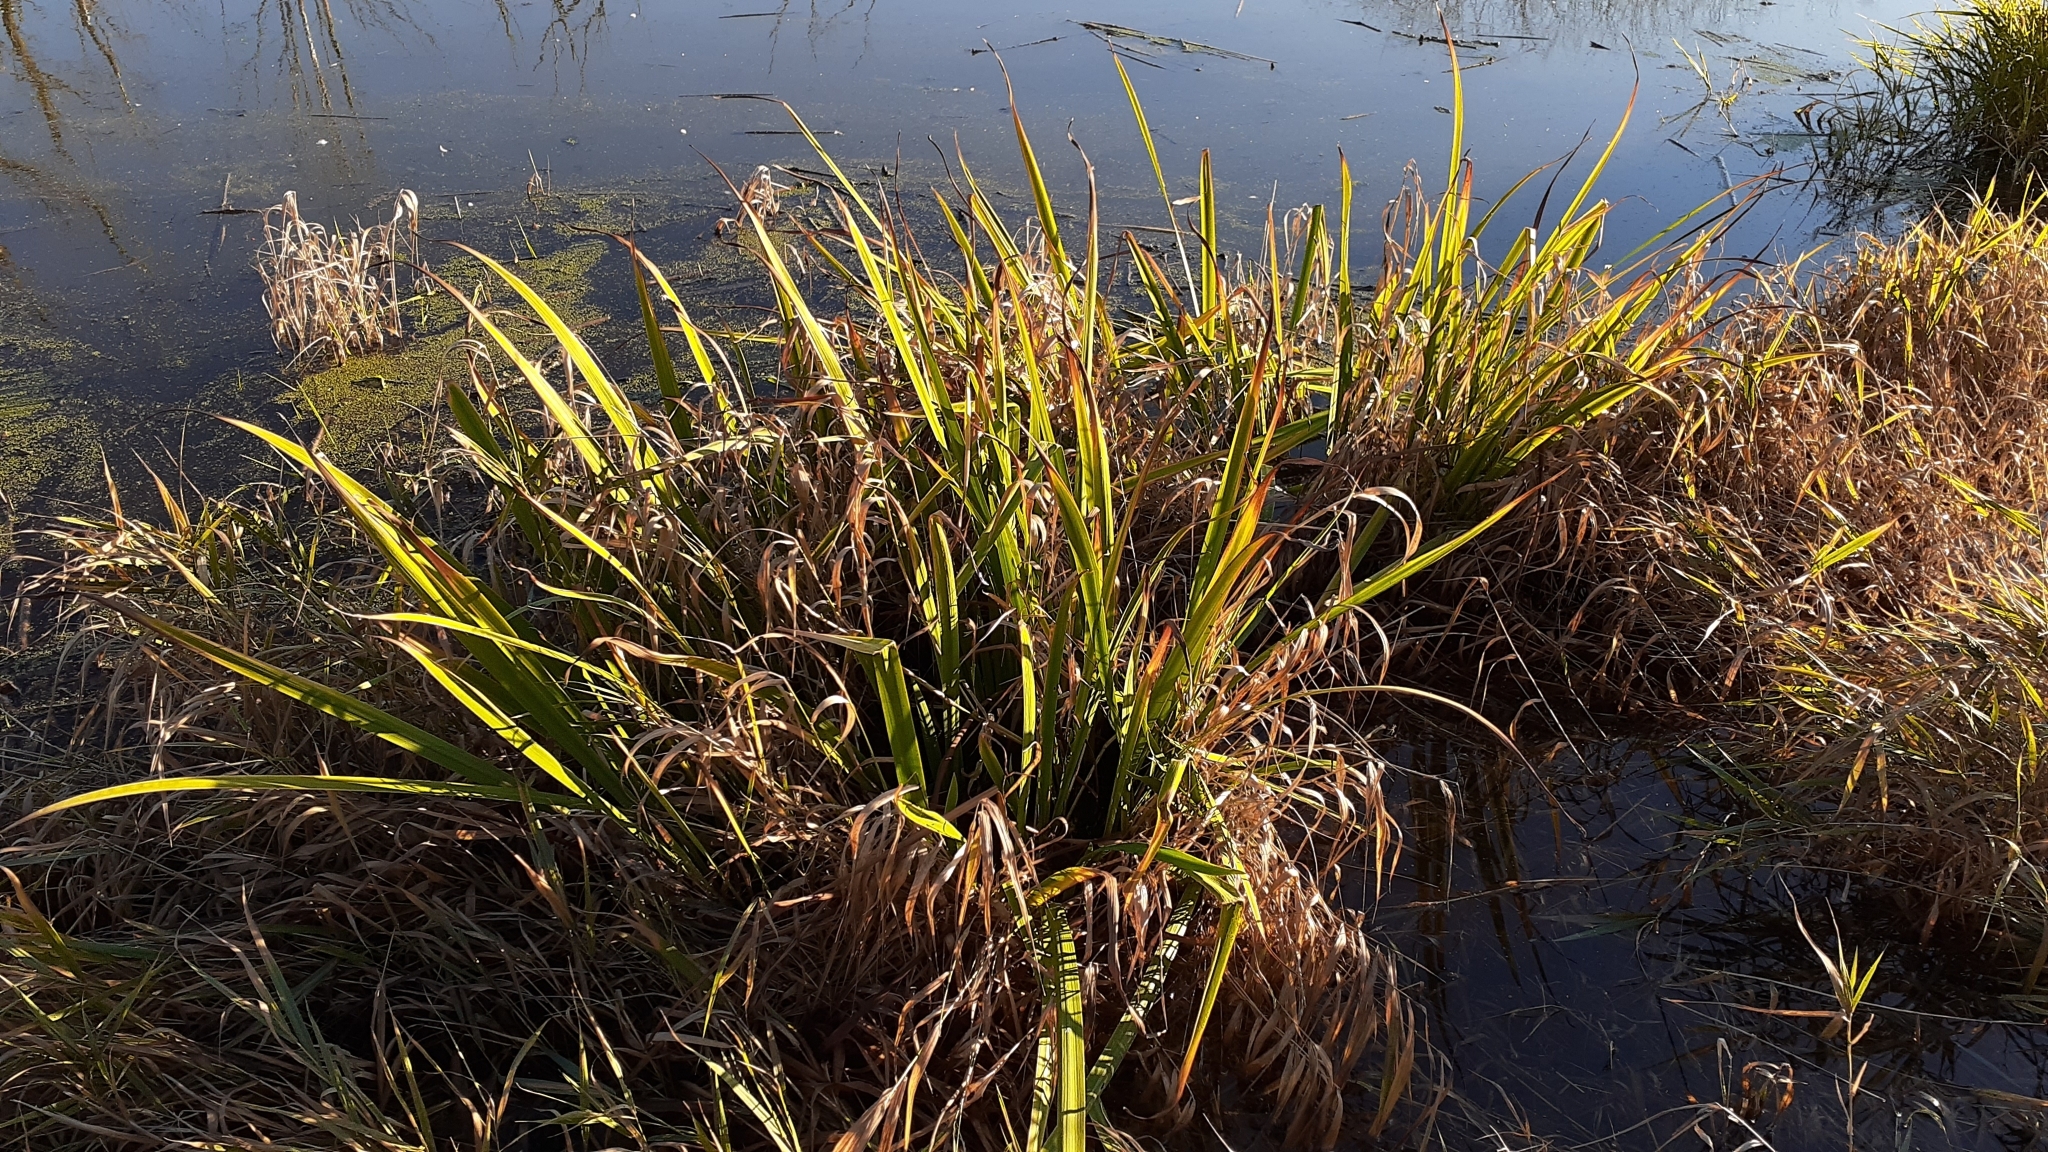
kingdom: Plantae
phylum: Tracheophyta
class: Liliopsida
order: Asparagales
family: Iridaceae
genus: Iris
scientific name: Iris virginica
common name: Southern blue flag
